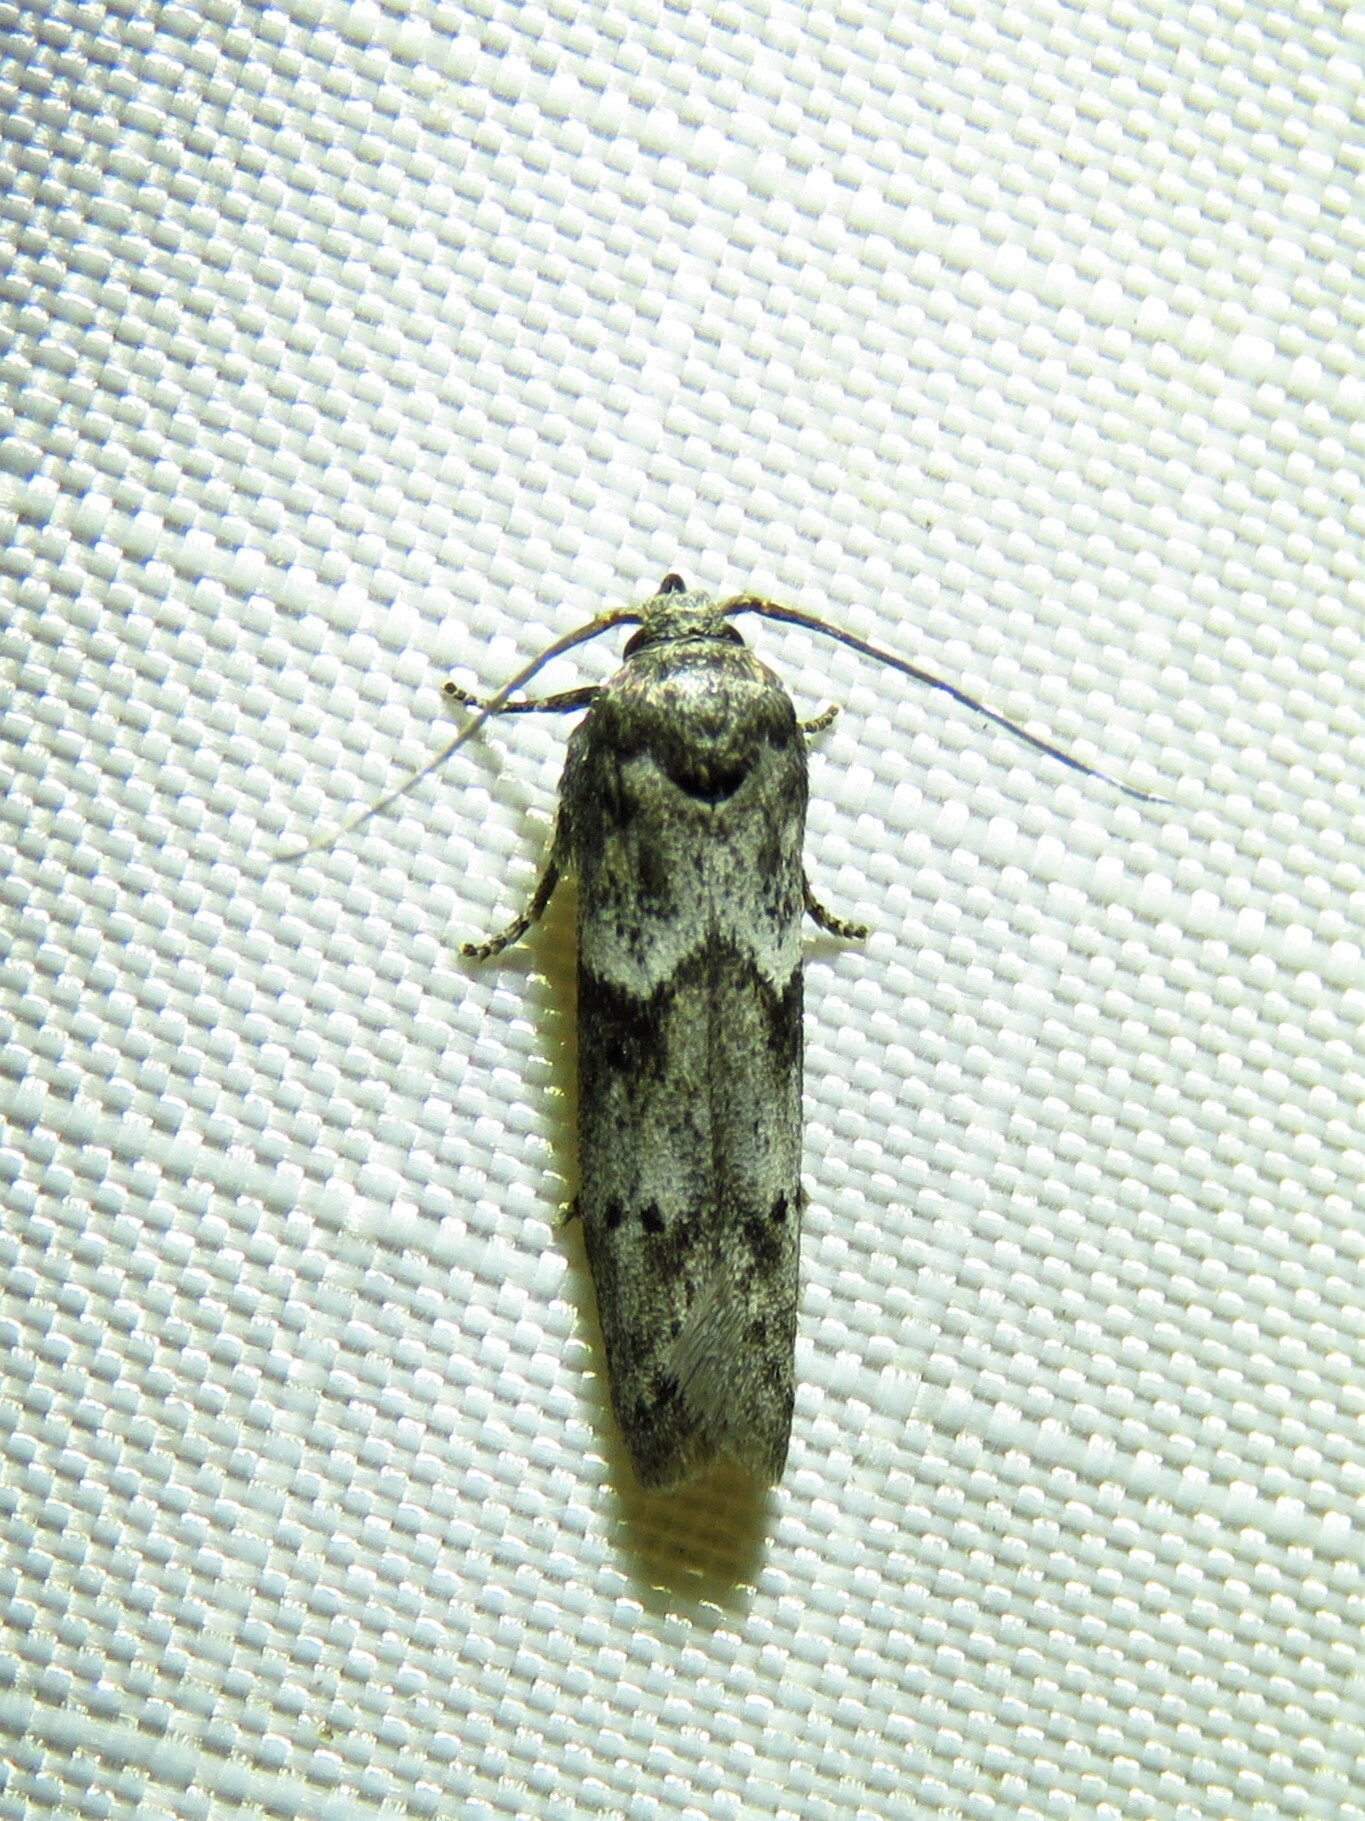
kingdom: Animalia
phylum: Arthropoda
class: Insecta
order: Lepidoptera
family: Blastobasidae
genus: Blastobasis
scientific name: Blastobasis glandulella
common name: Acorn moth
